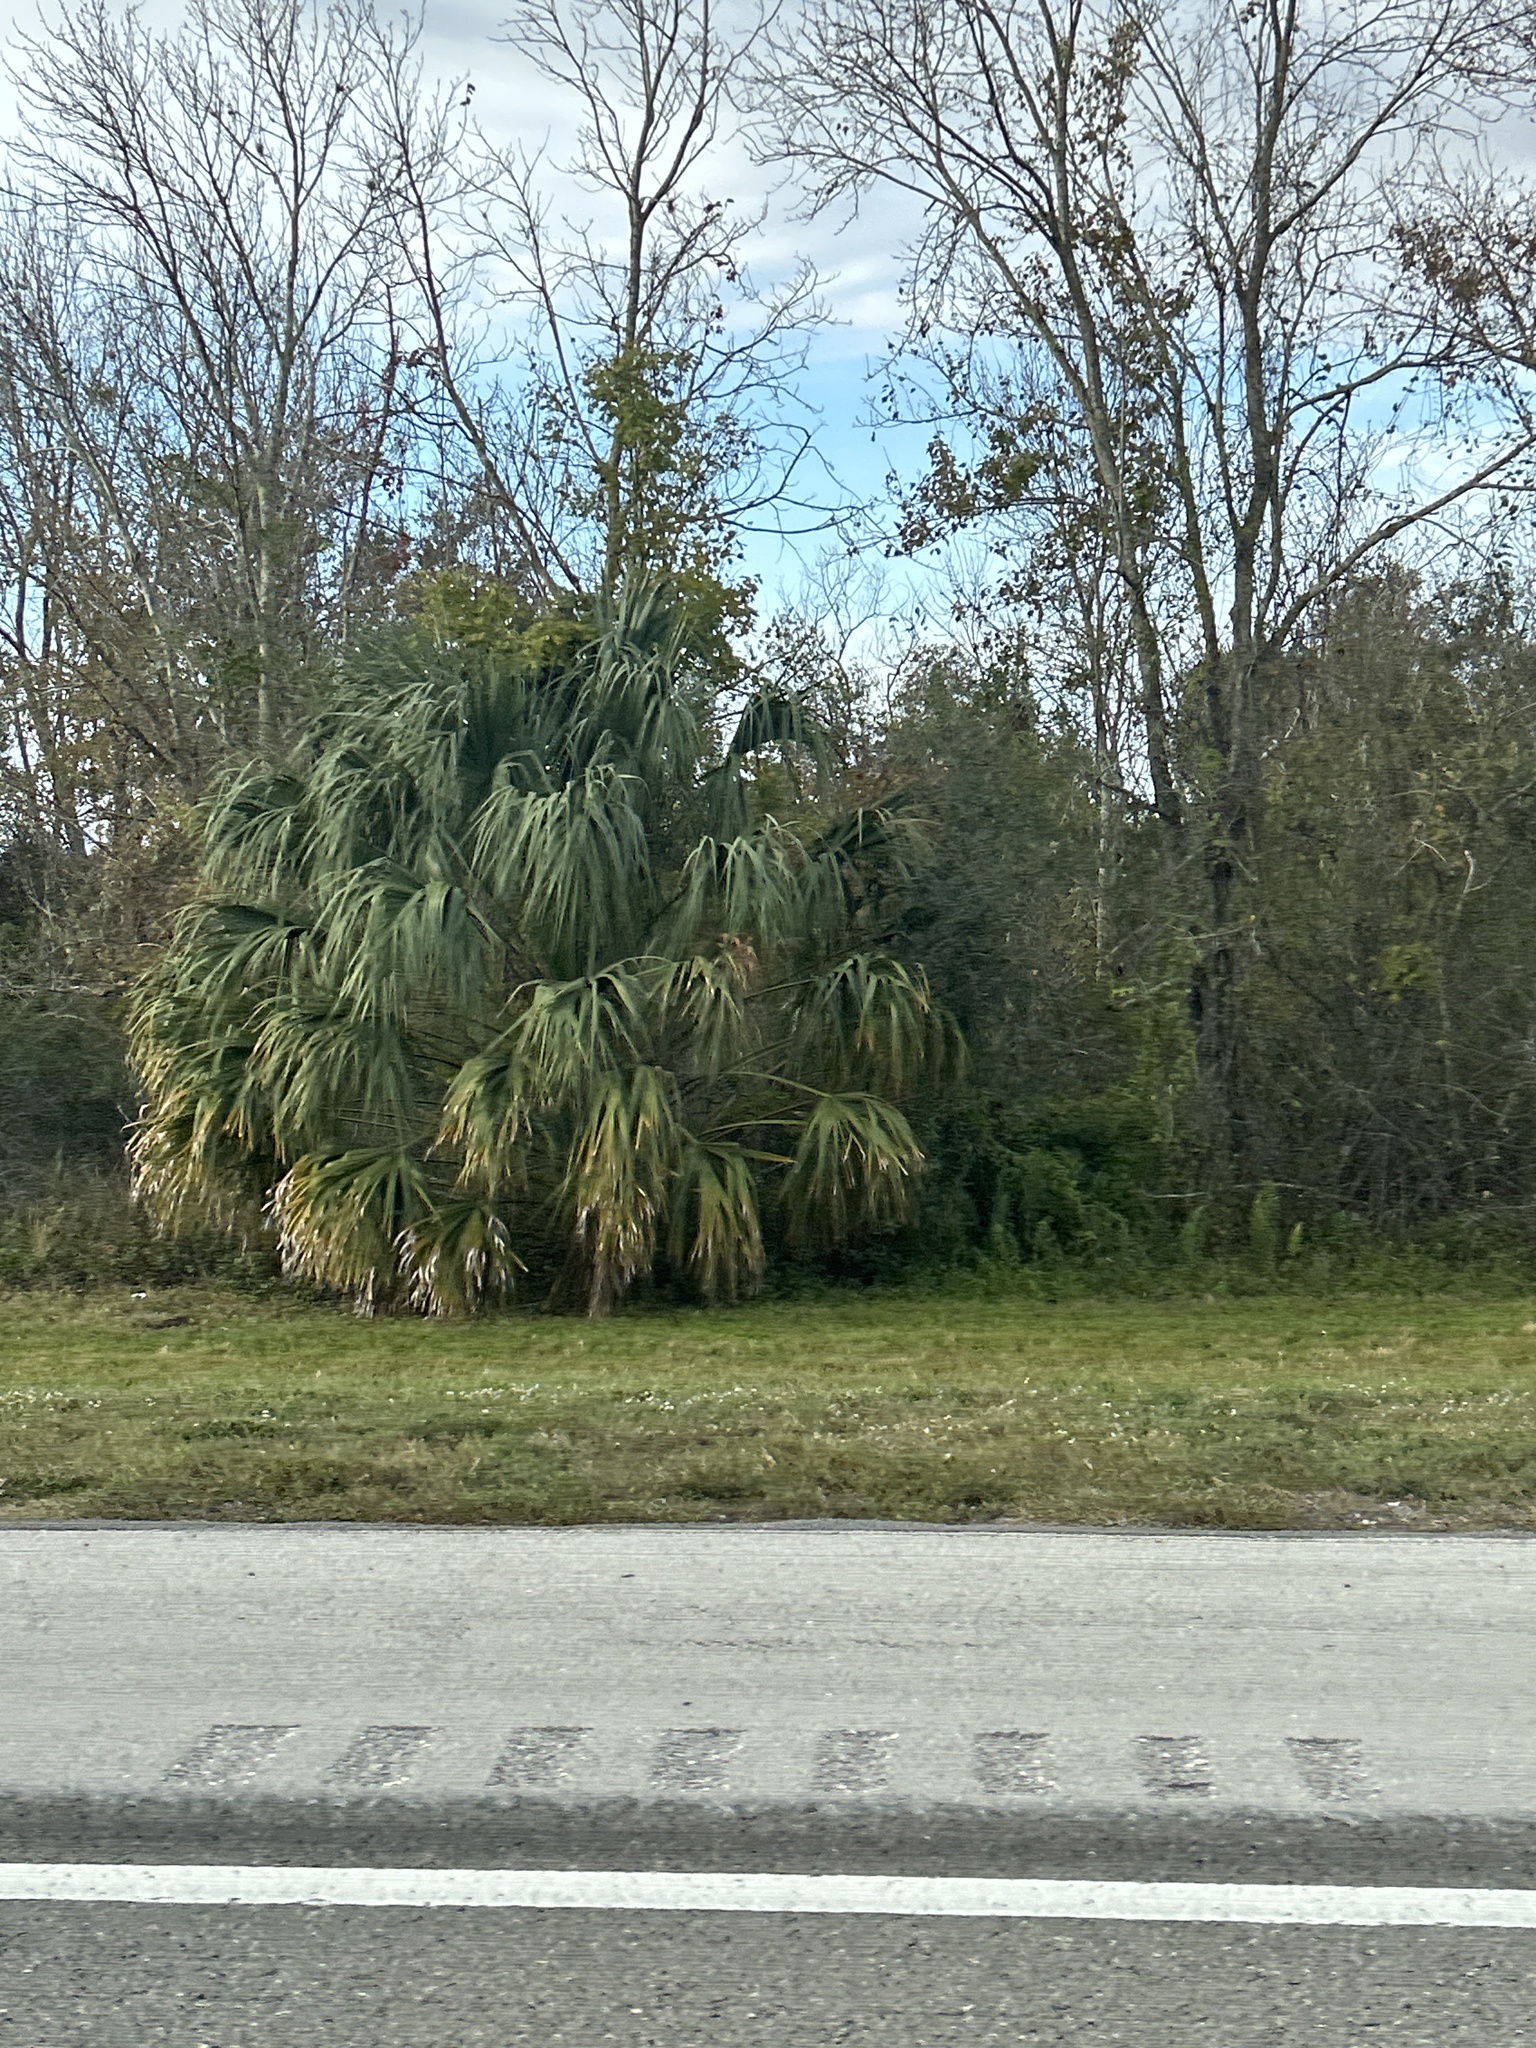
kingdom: Plantae
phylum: Tracheophyta
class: Liliopsida
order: Arecales
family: Arecaceae
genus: Sabal
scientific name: Sabal palmetto
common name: Blue palmetto
